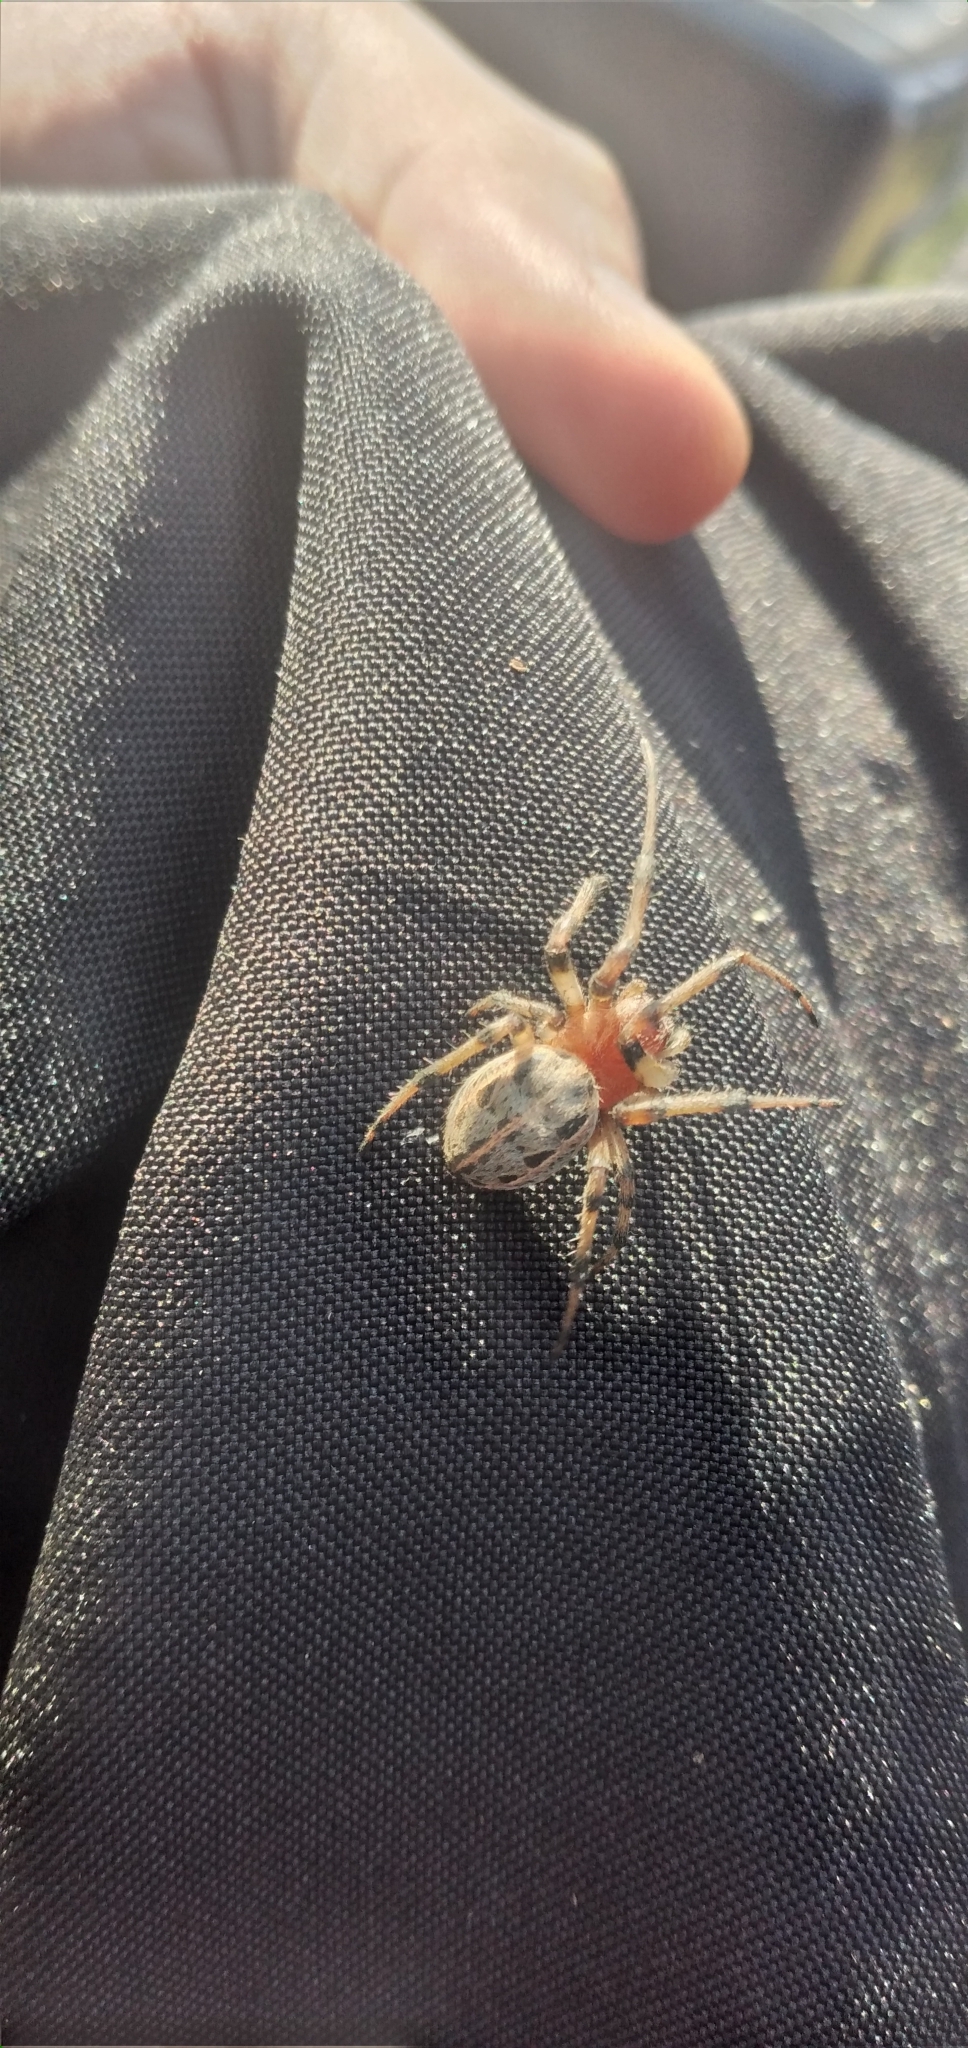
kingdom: Animalia
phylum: Arthropoda
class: Arachnida
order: Araneae
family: Araneidae
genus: Alpaida
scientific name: Alpaida veniliae
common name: Orb weavers
